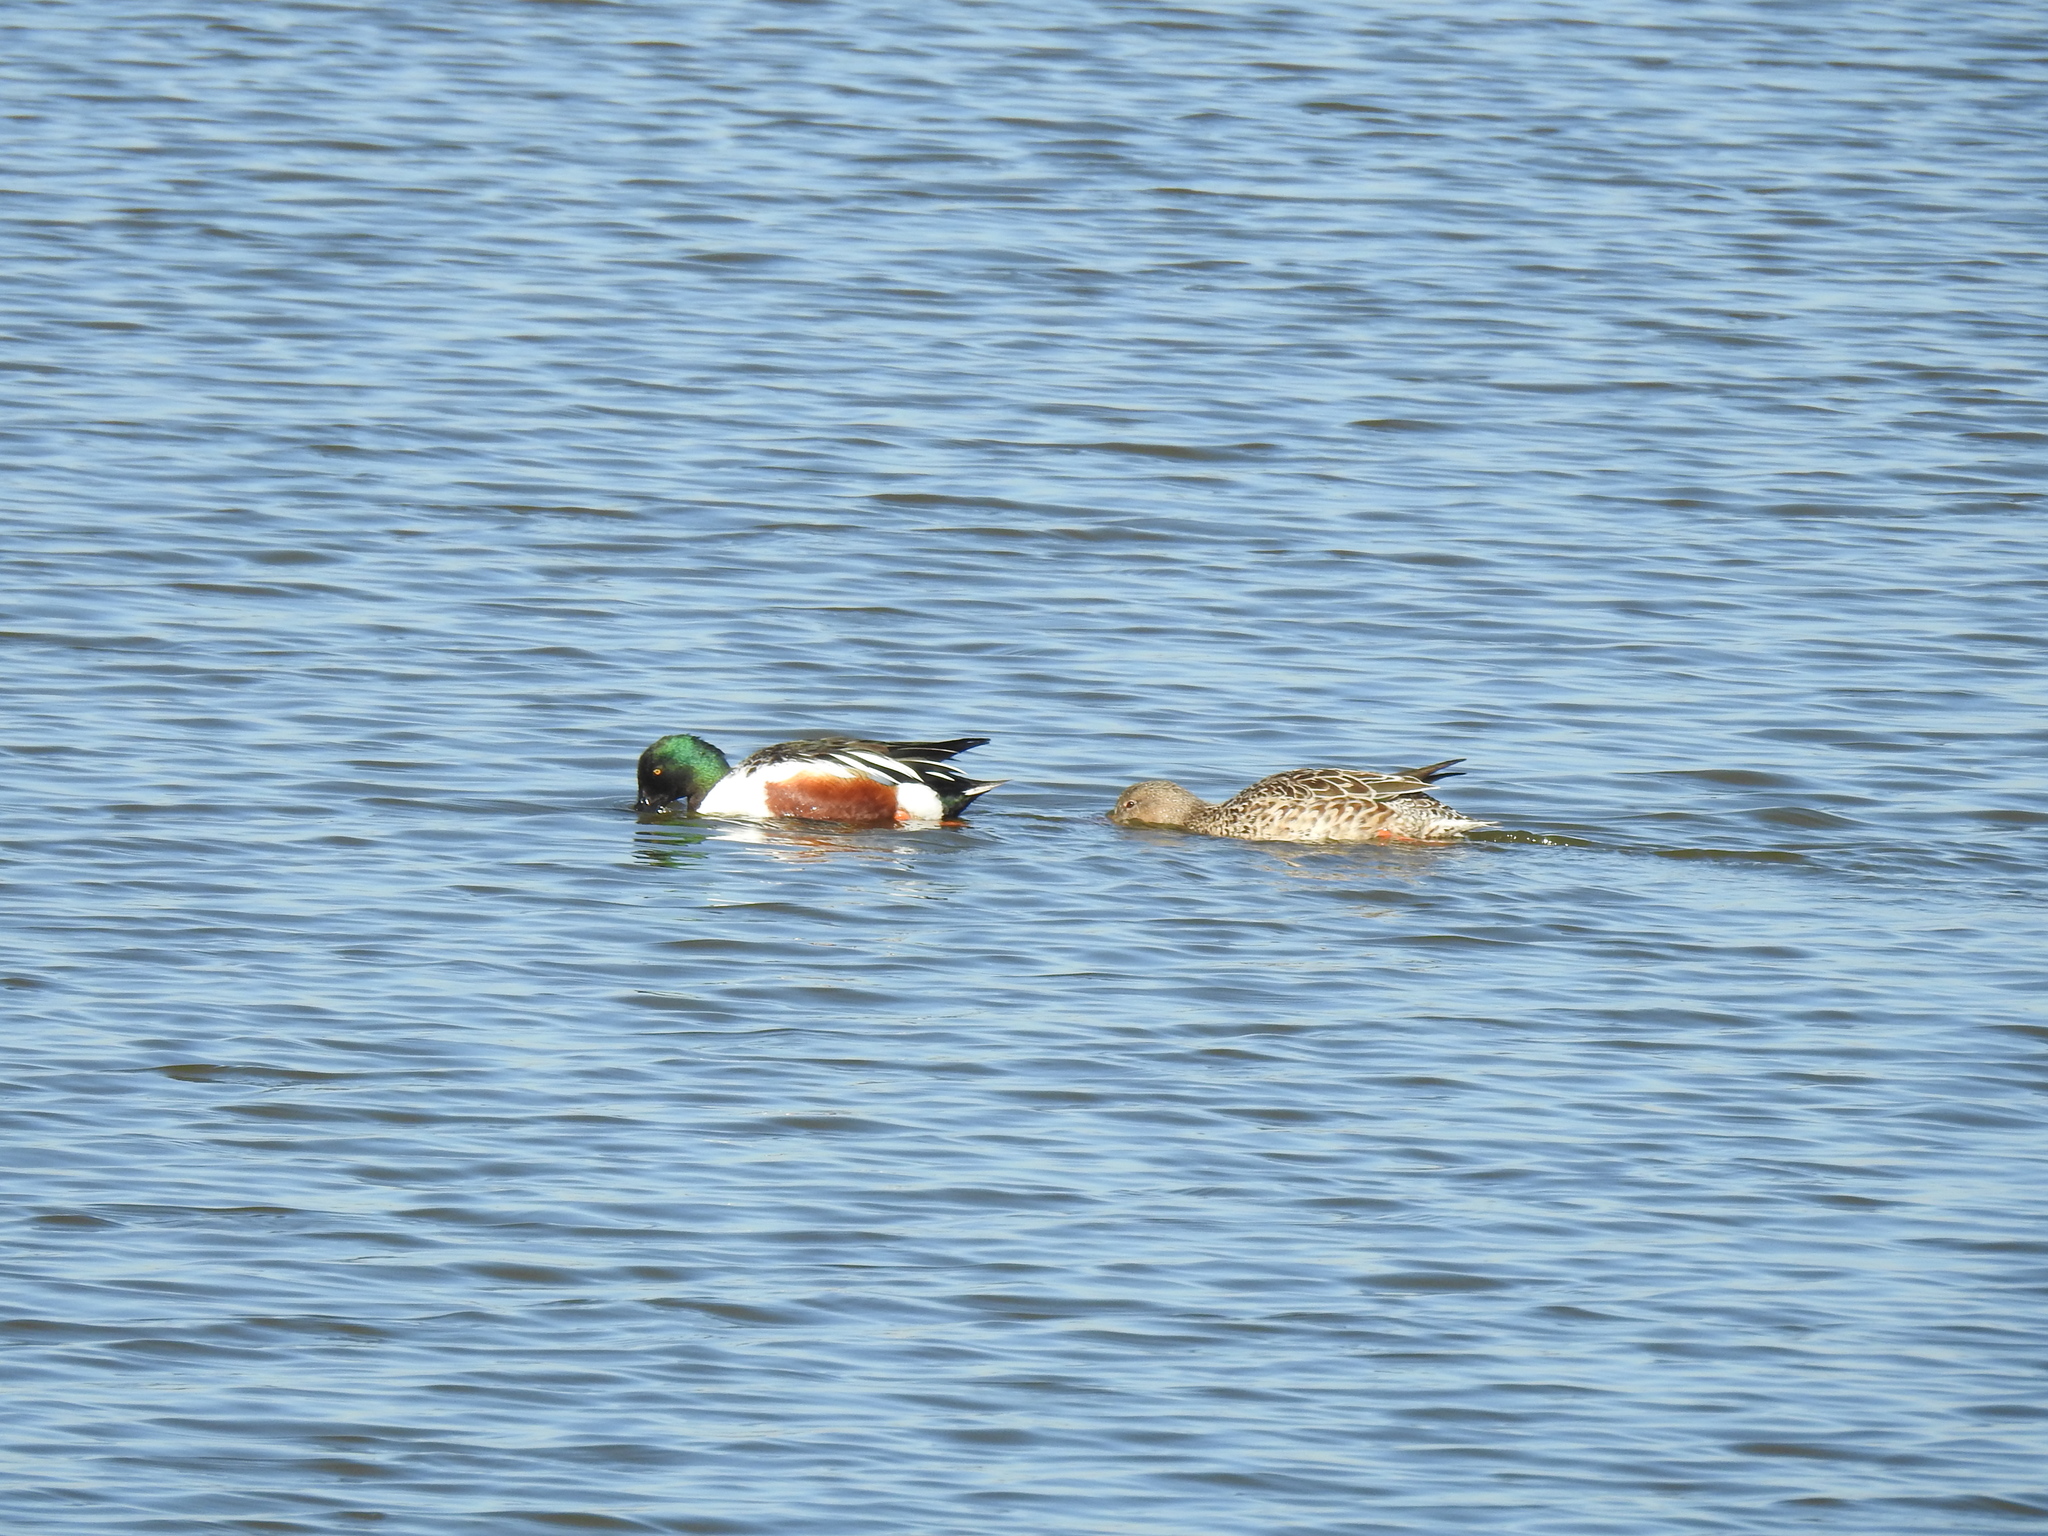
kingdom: Animalia
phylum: Chordata
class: Aves
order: Anseriformes
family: Anatidae
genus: Spatula
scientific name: Spatula clypeata
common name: Northern shoveler
